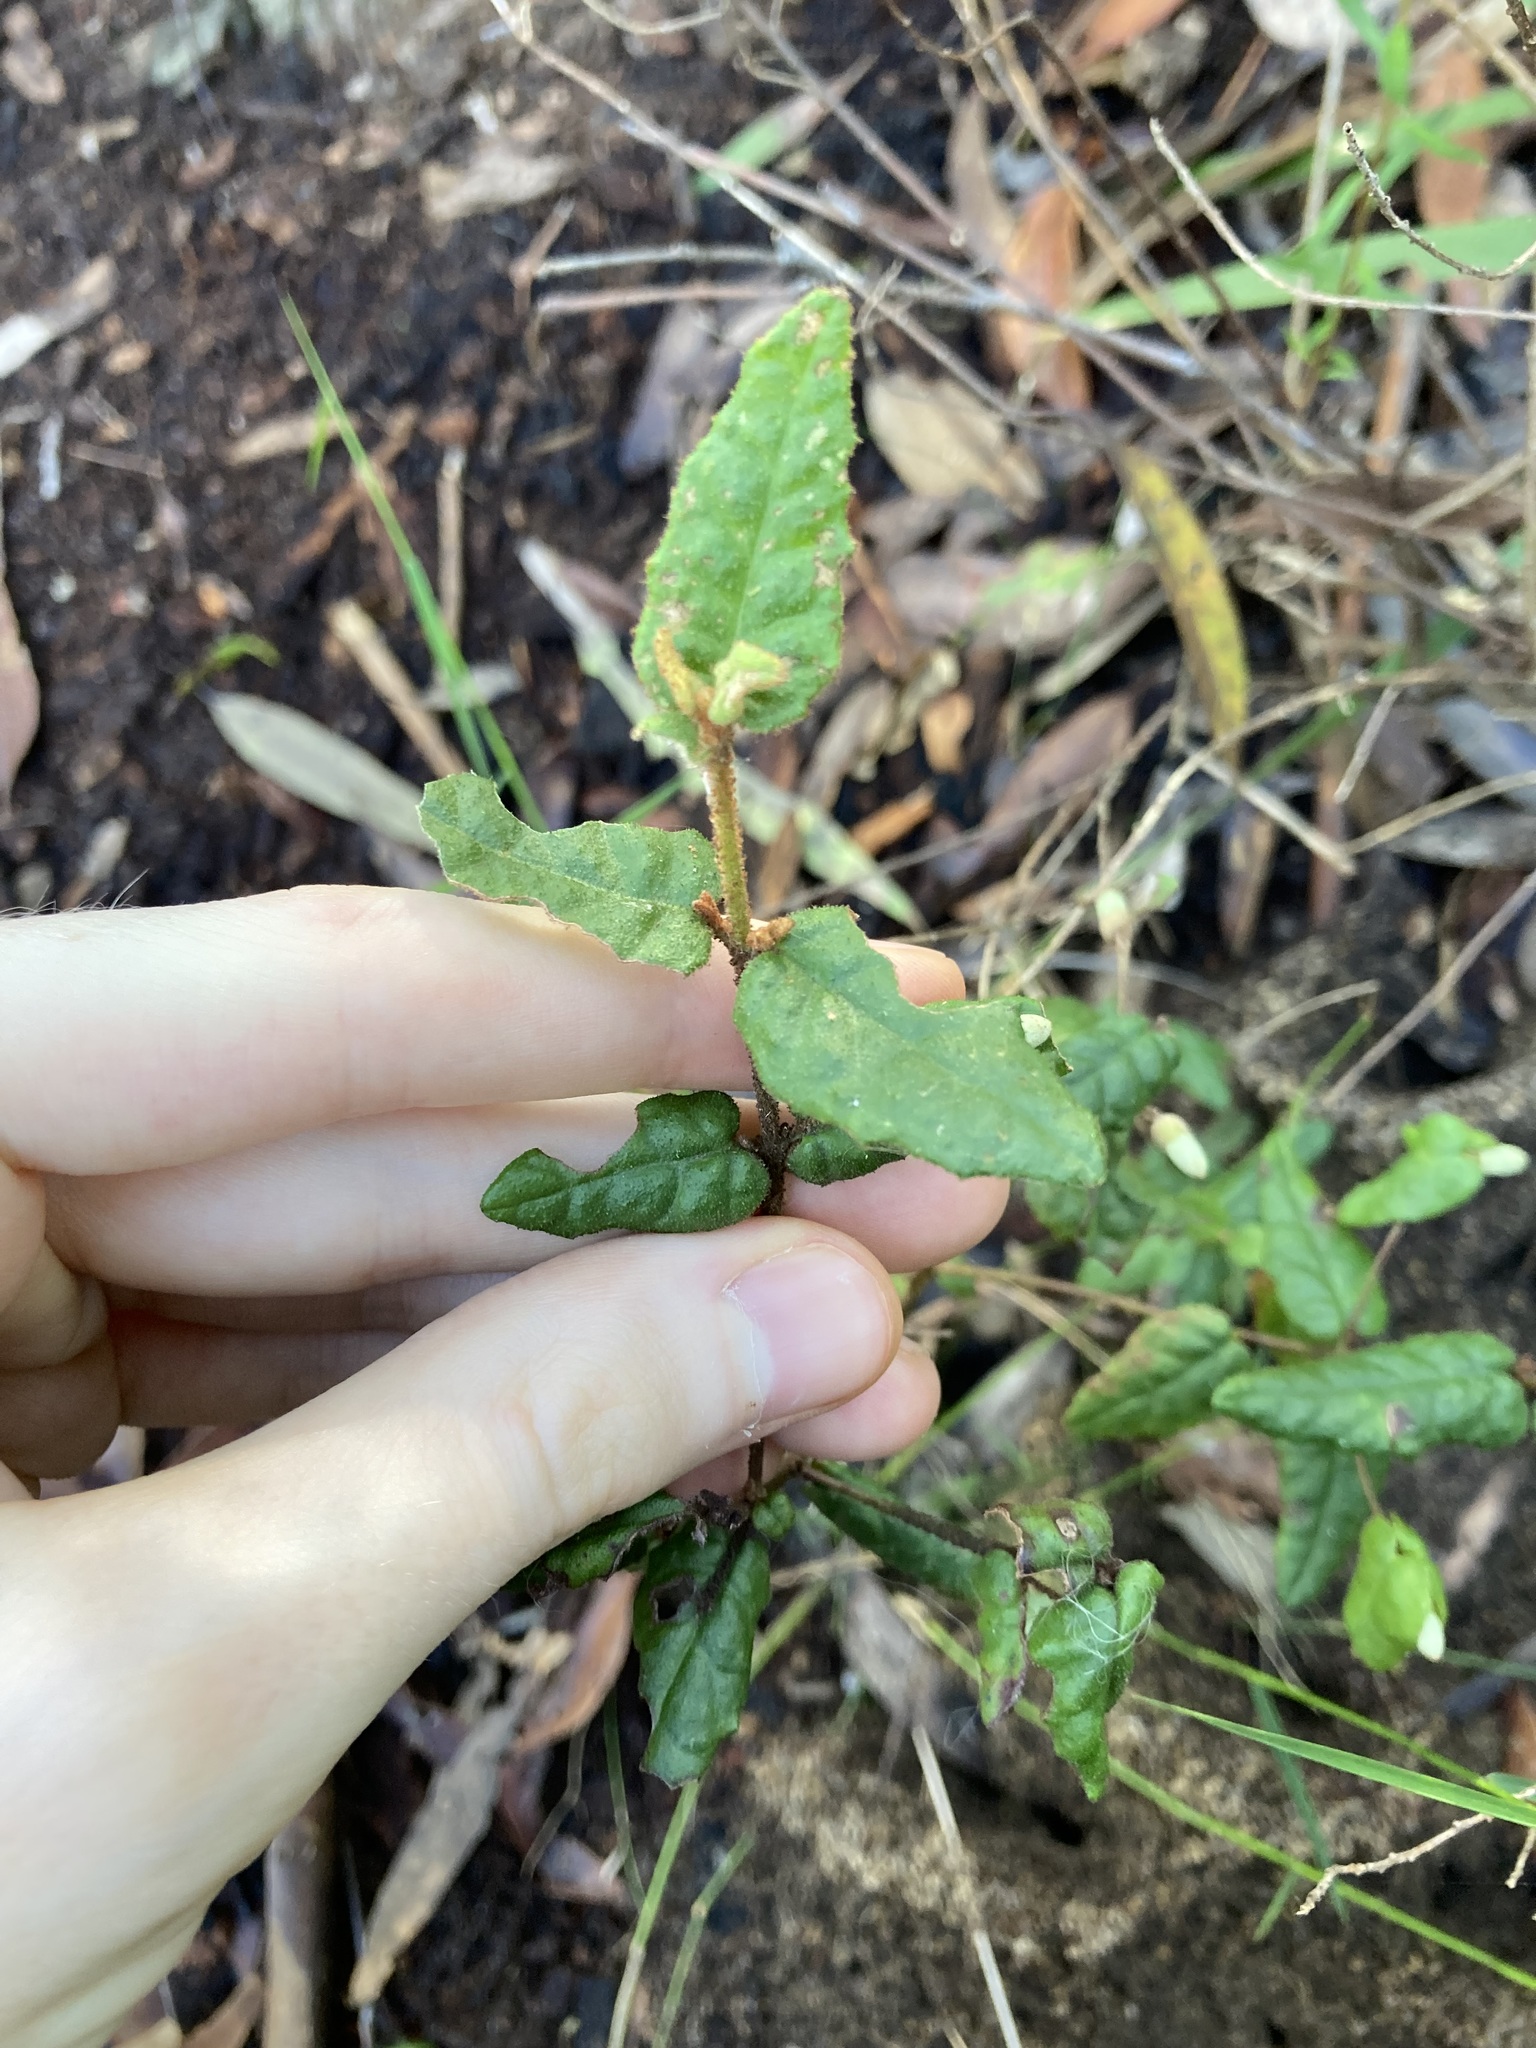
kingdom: Plantae
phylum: Tracheophyta
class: Magnoliopsida
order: Sapindales
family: Rutaceae
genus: Correa
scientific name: Correa reflexa
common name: Common correa
